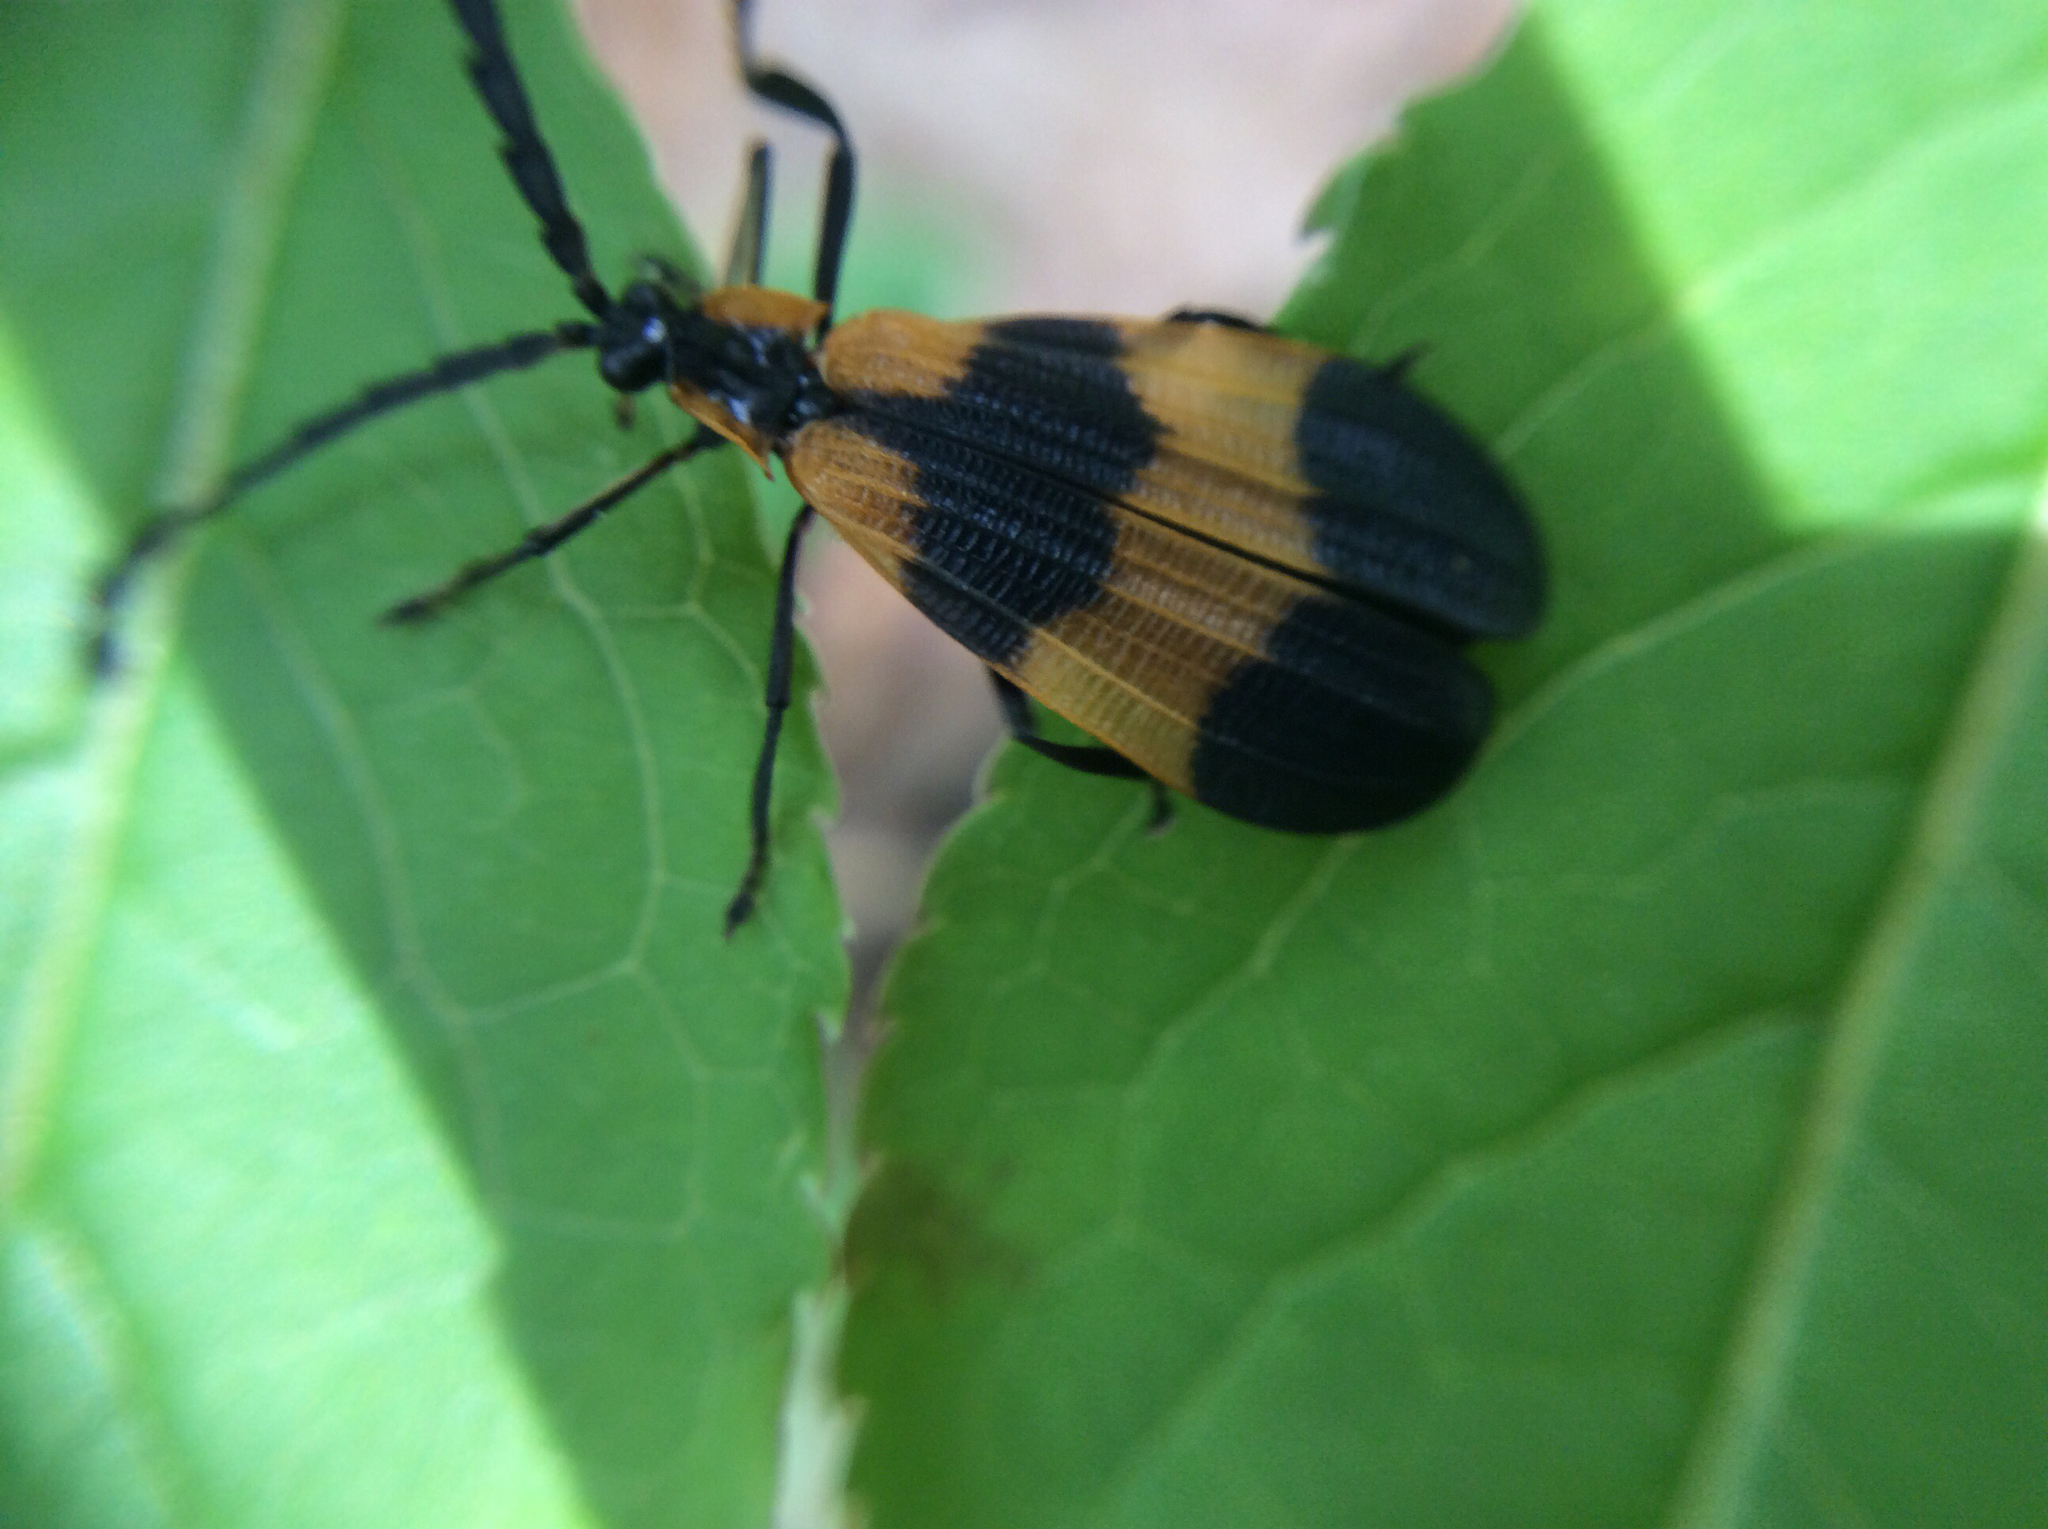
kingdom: Animalia
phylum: Arthropoda
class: Insecta
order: Coleoptera
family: Lycidae
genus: Calopteron
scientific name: Calopteron reticulatum
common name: Banded net-winged beetle
